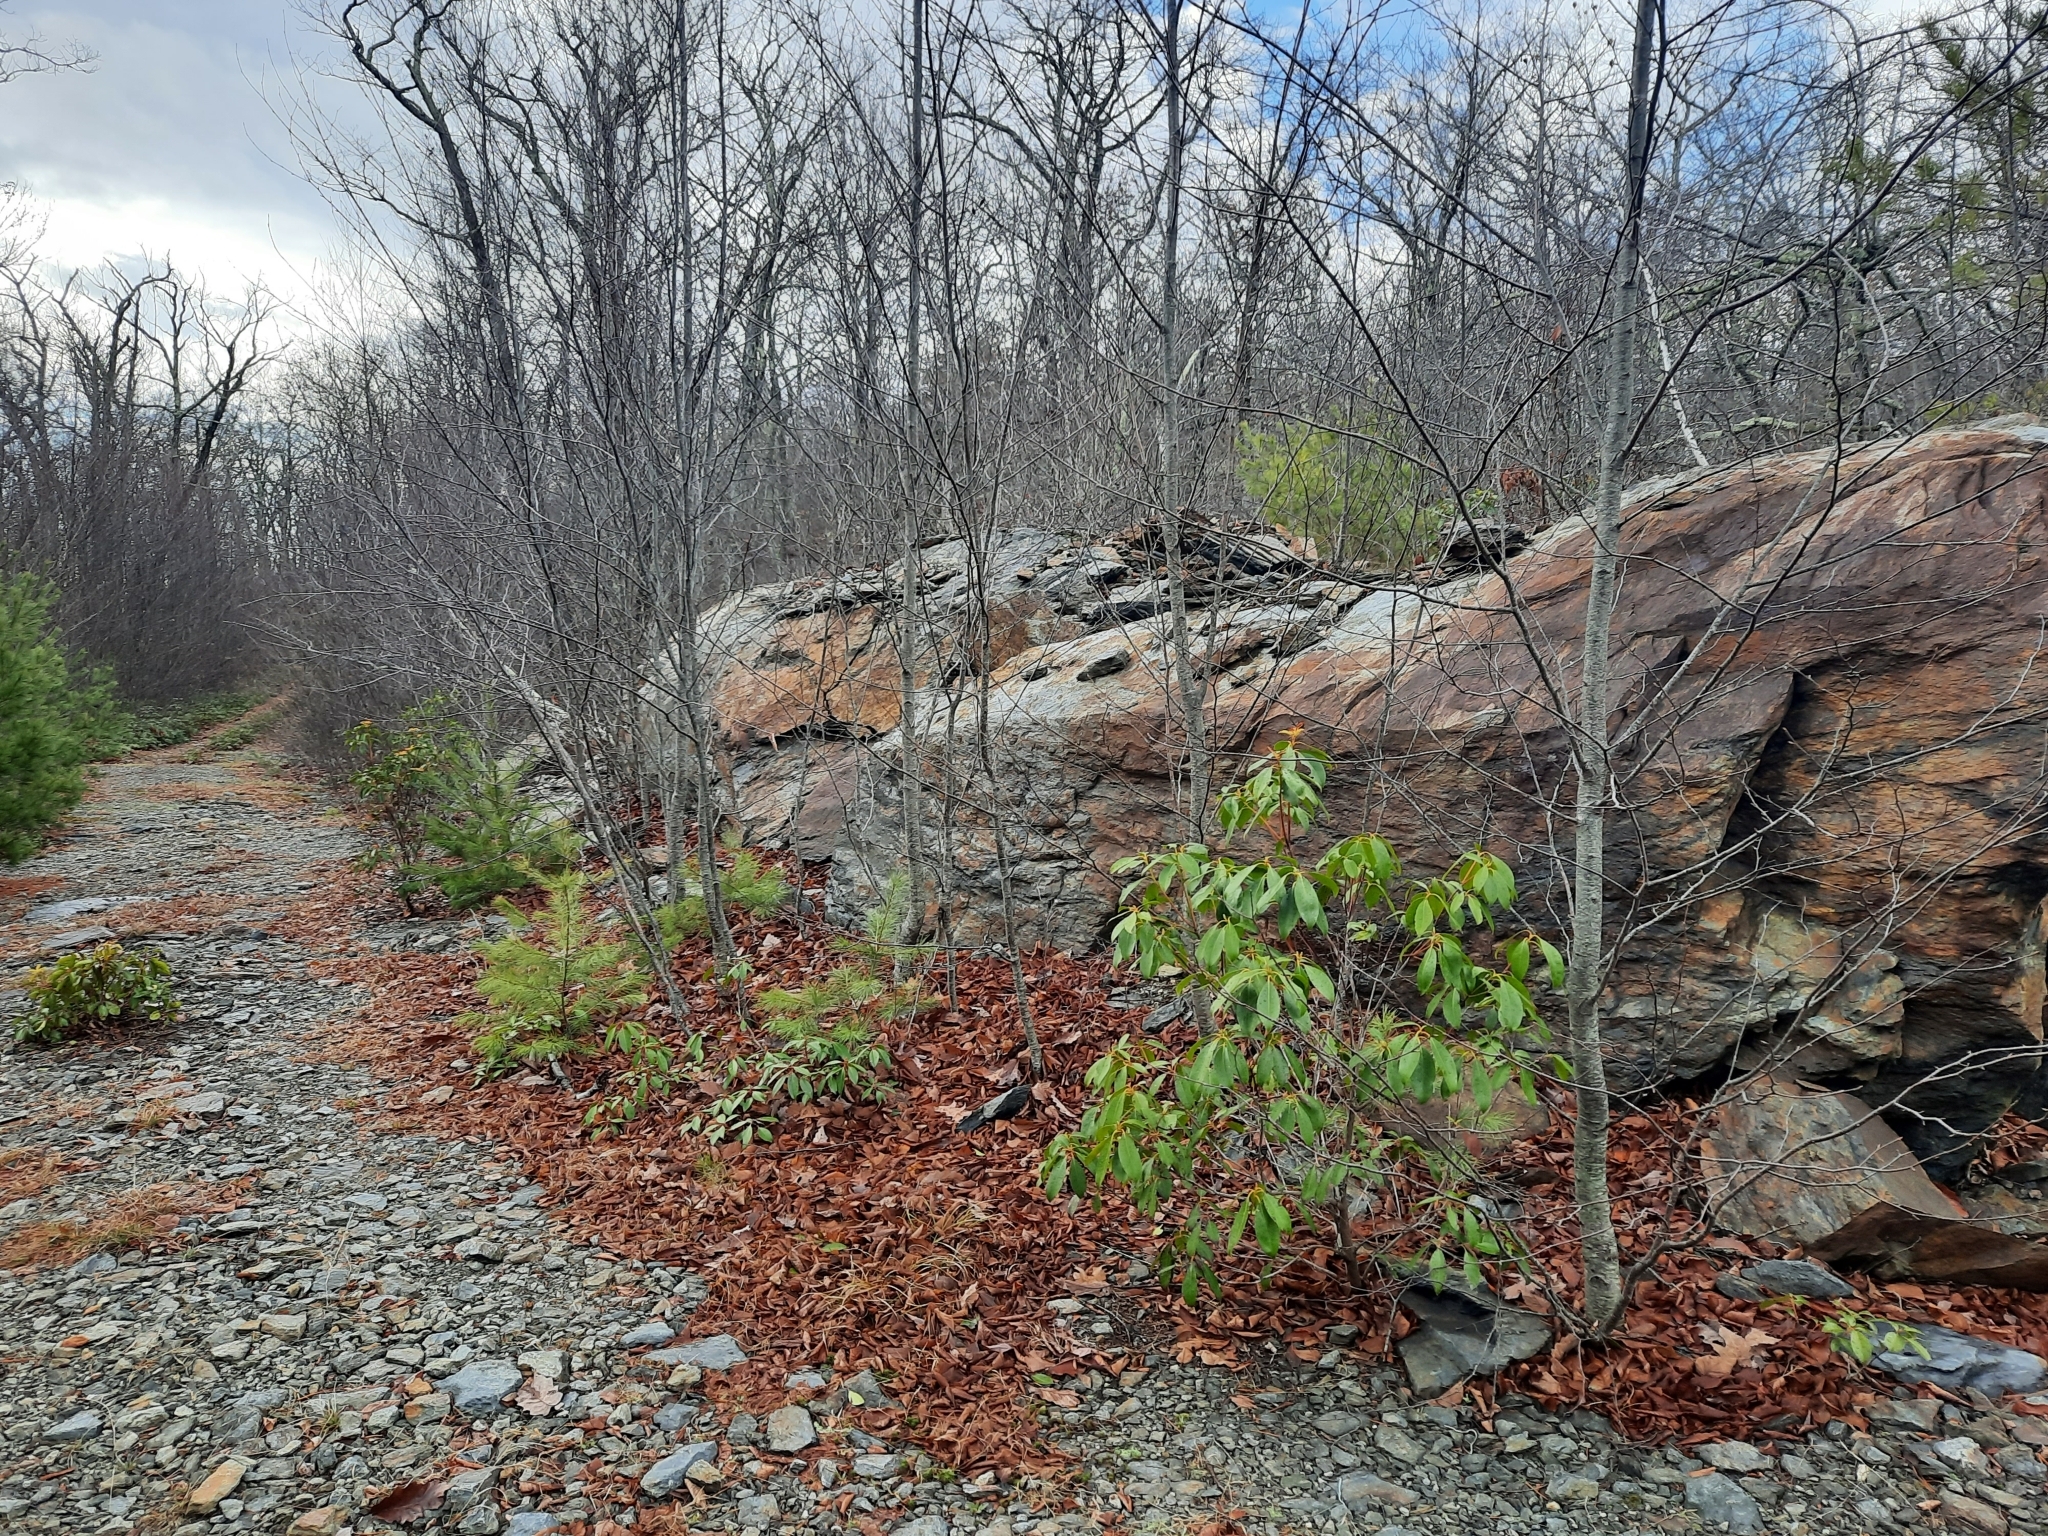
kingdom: Plantae
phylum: Tracheophyta
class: Magnoliopsida
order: Ericales
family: Ericaceae
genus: Kalmia
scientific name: Kalmia latifolia
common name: Mountain-laurel
